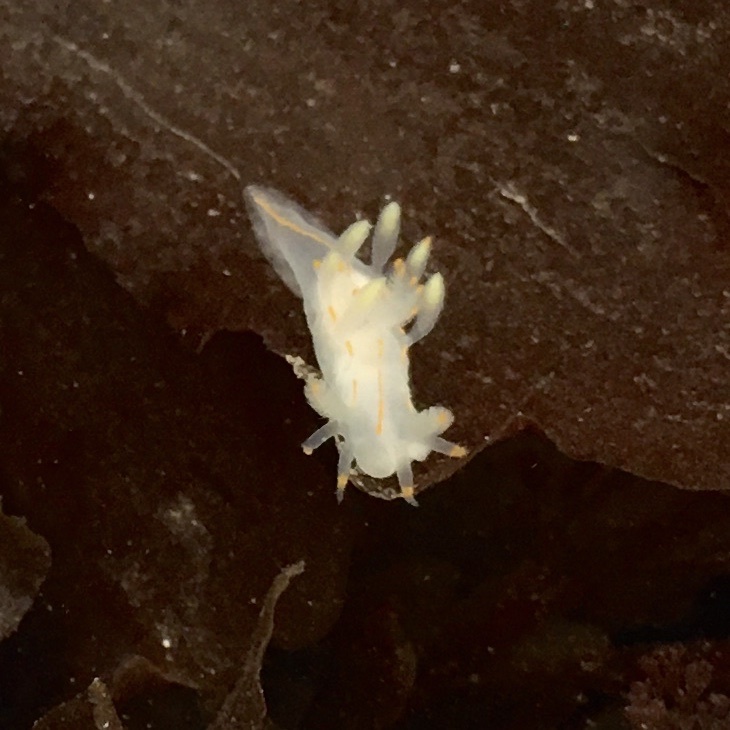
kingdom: Animalia
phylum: Mollusca
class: Gastropoda
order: Nudibranchia
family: Goniodorididae
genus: Ancula
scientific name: Ancula pacifica
